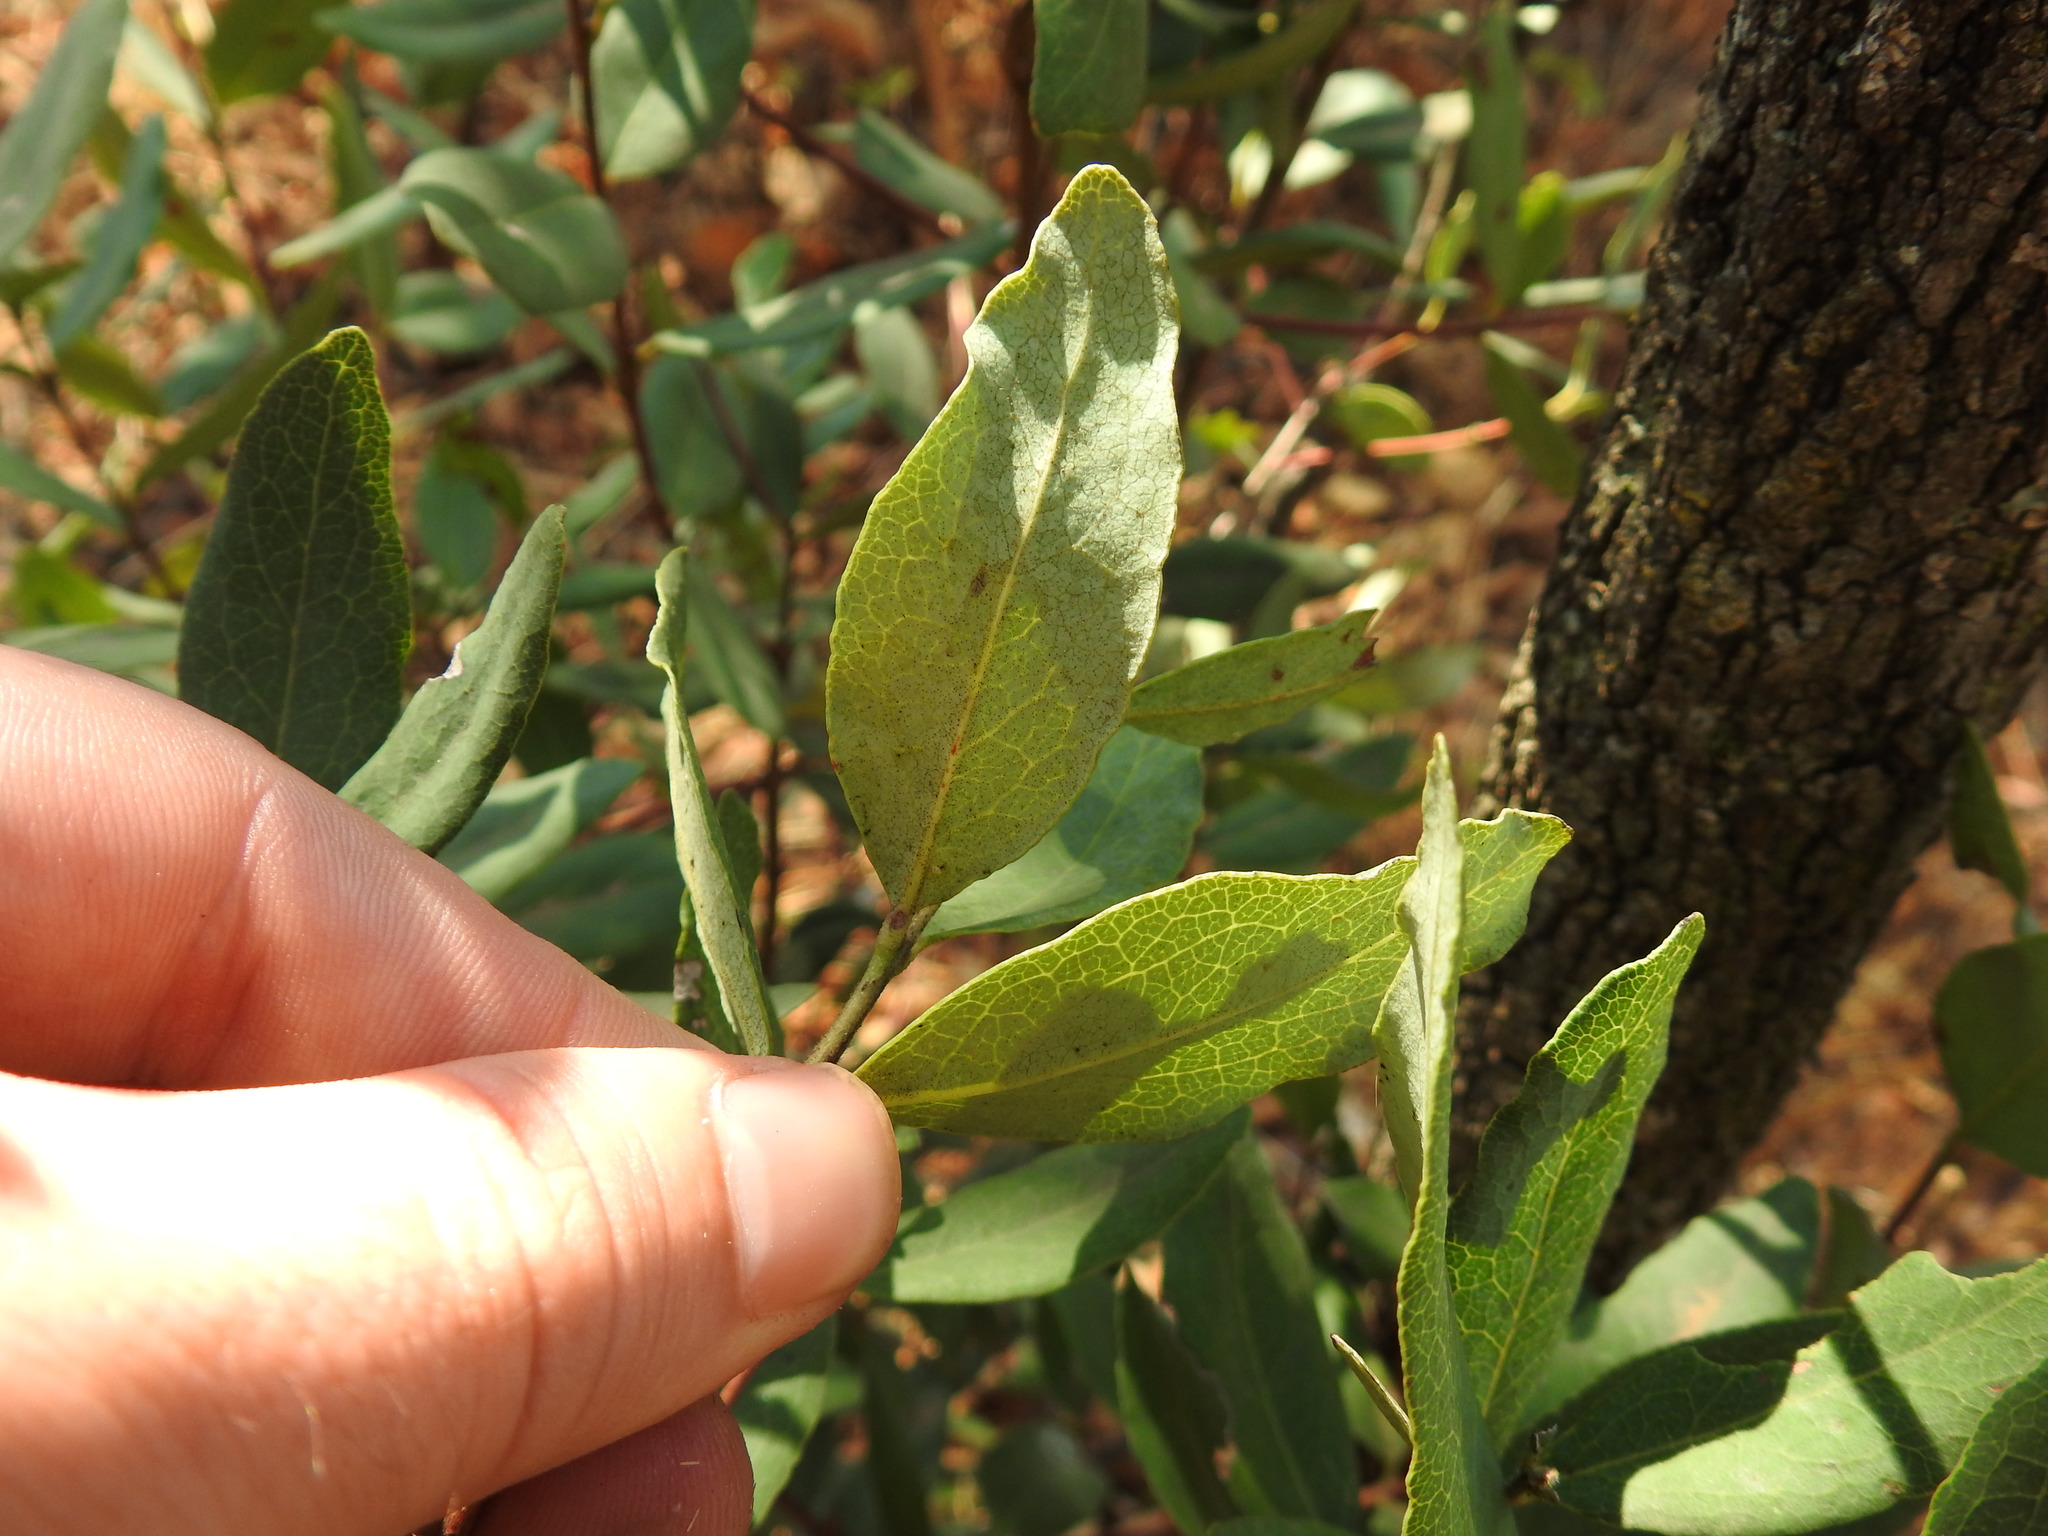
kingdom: Plantae
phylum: Tracheophyta
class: Magnoliopsida
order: Ericales
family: Ebenaceae
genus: Euclea
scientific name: Euclea crispa
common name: Blue guarri
